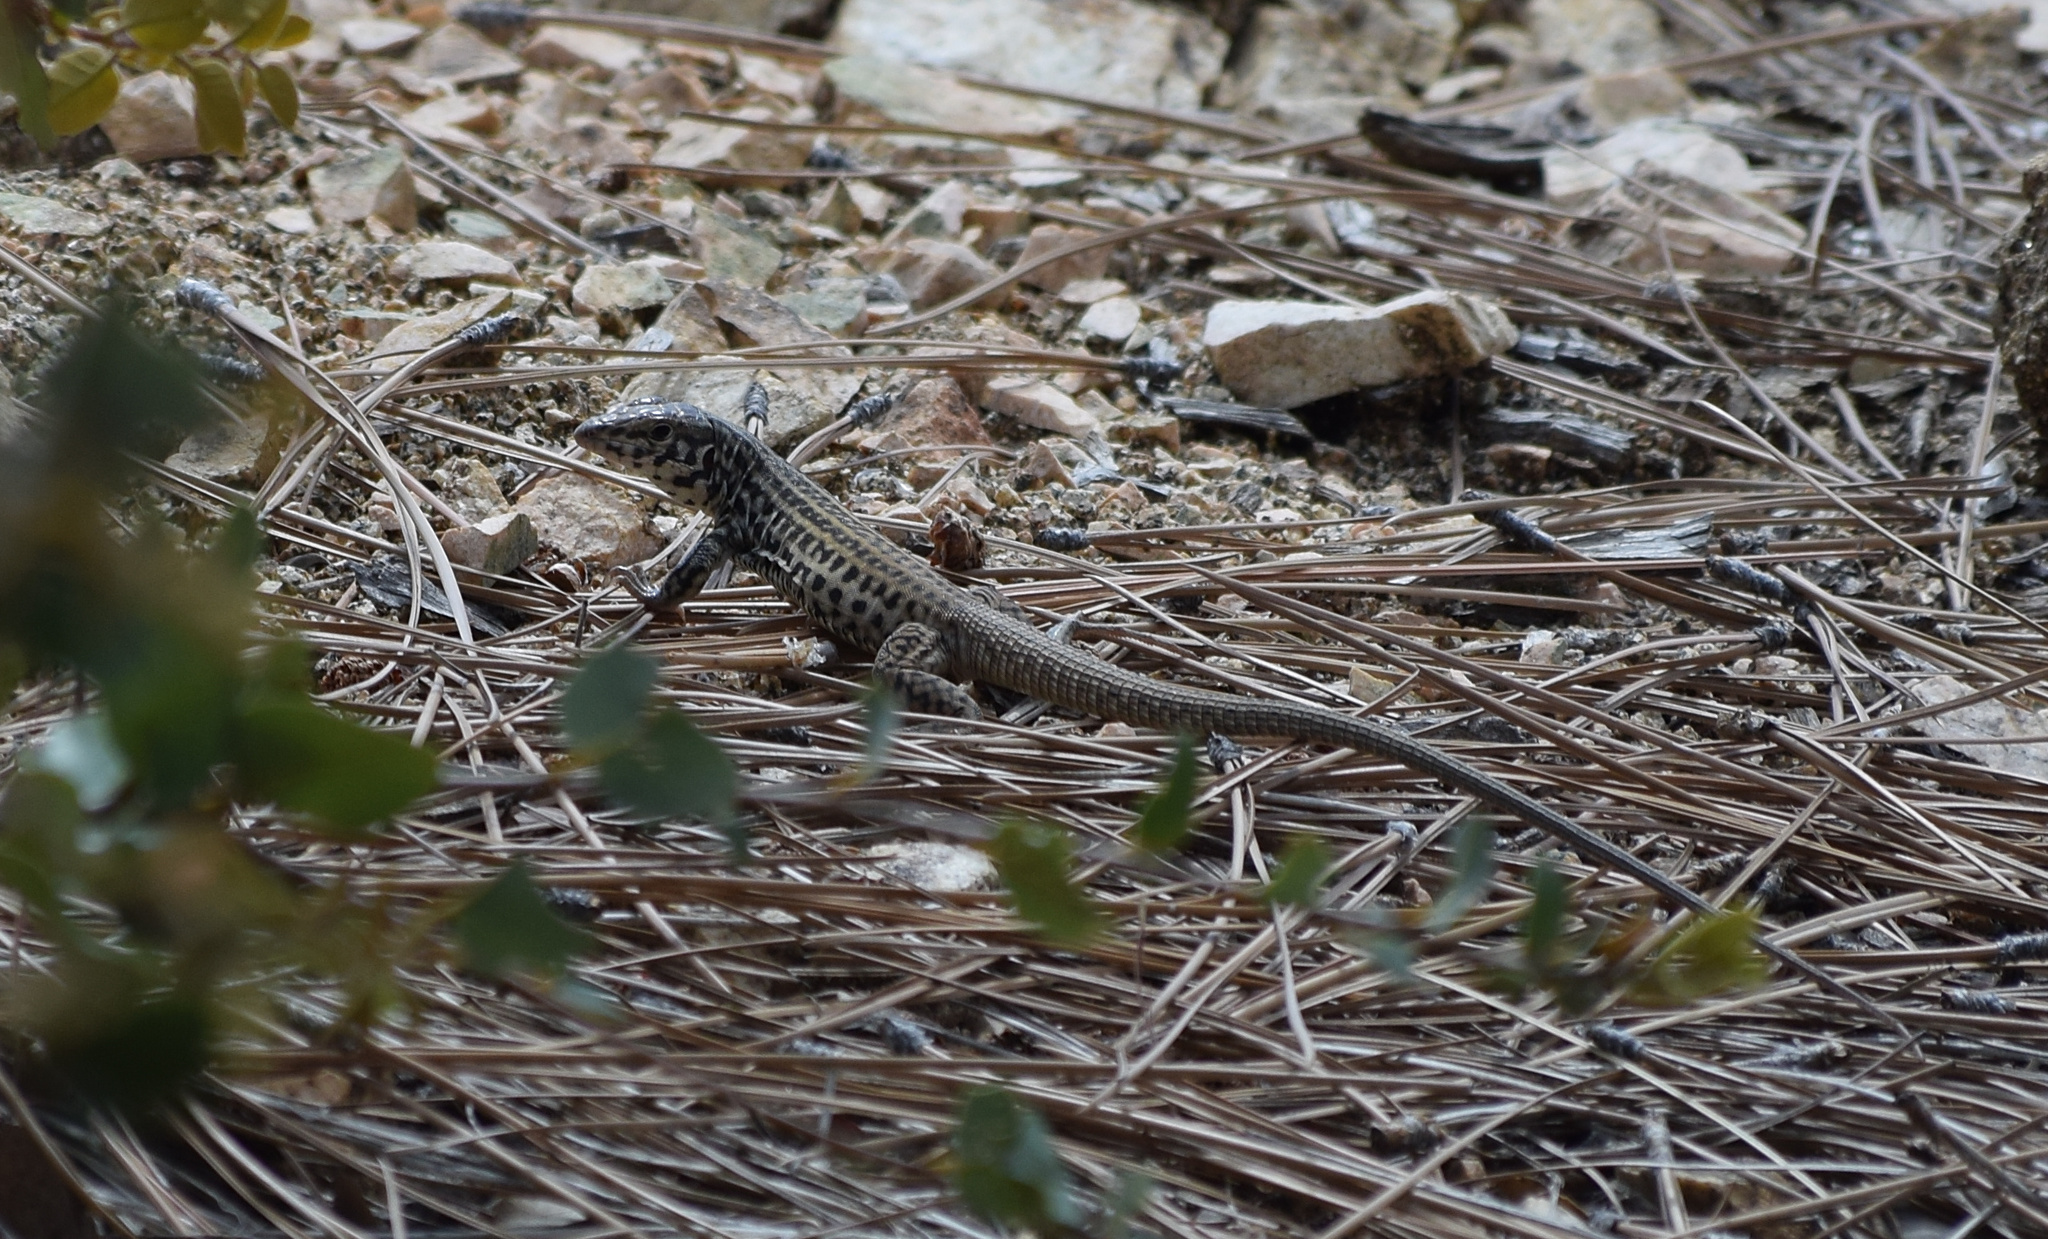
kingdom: Animalia
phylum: Chordata
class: Squamata
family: Teiidae
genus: Aspidoscelis
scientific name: Aspidoscelis tigris
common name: Tiger whiptail
